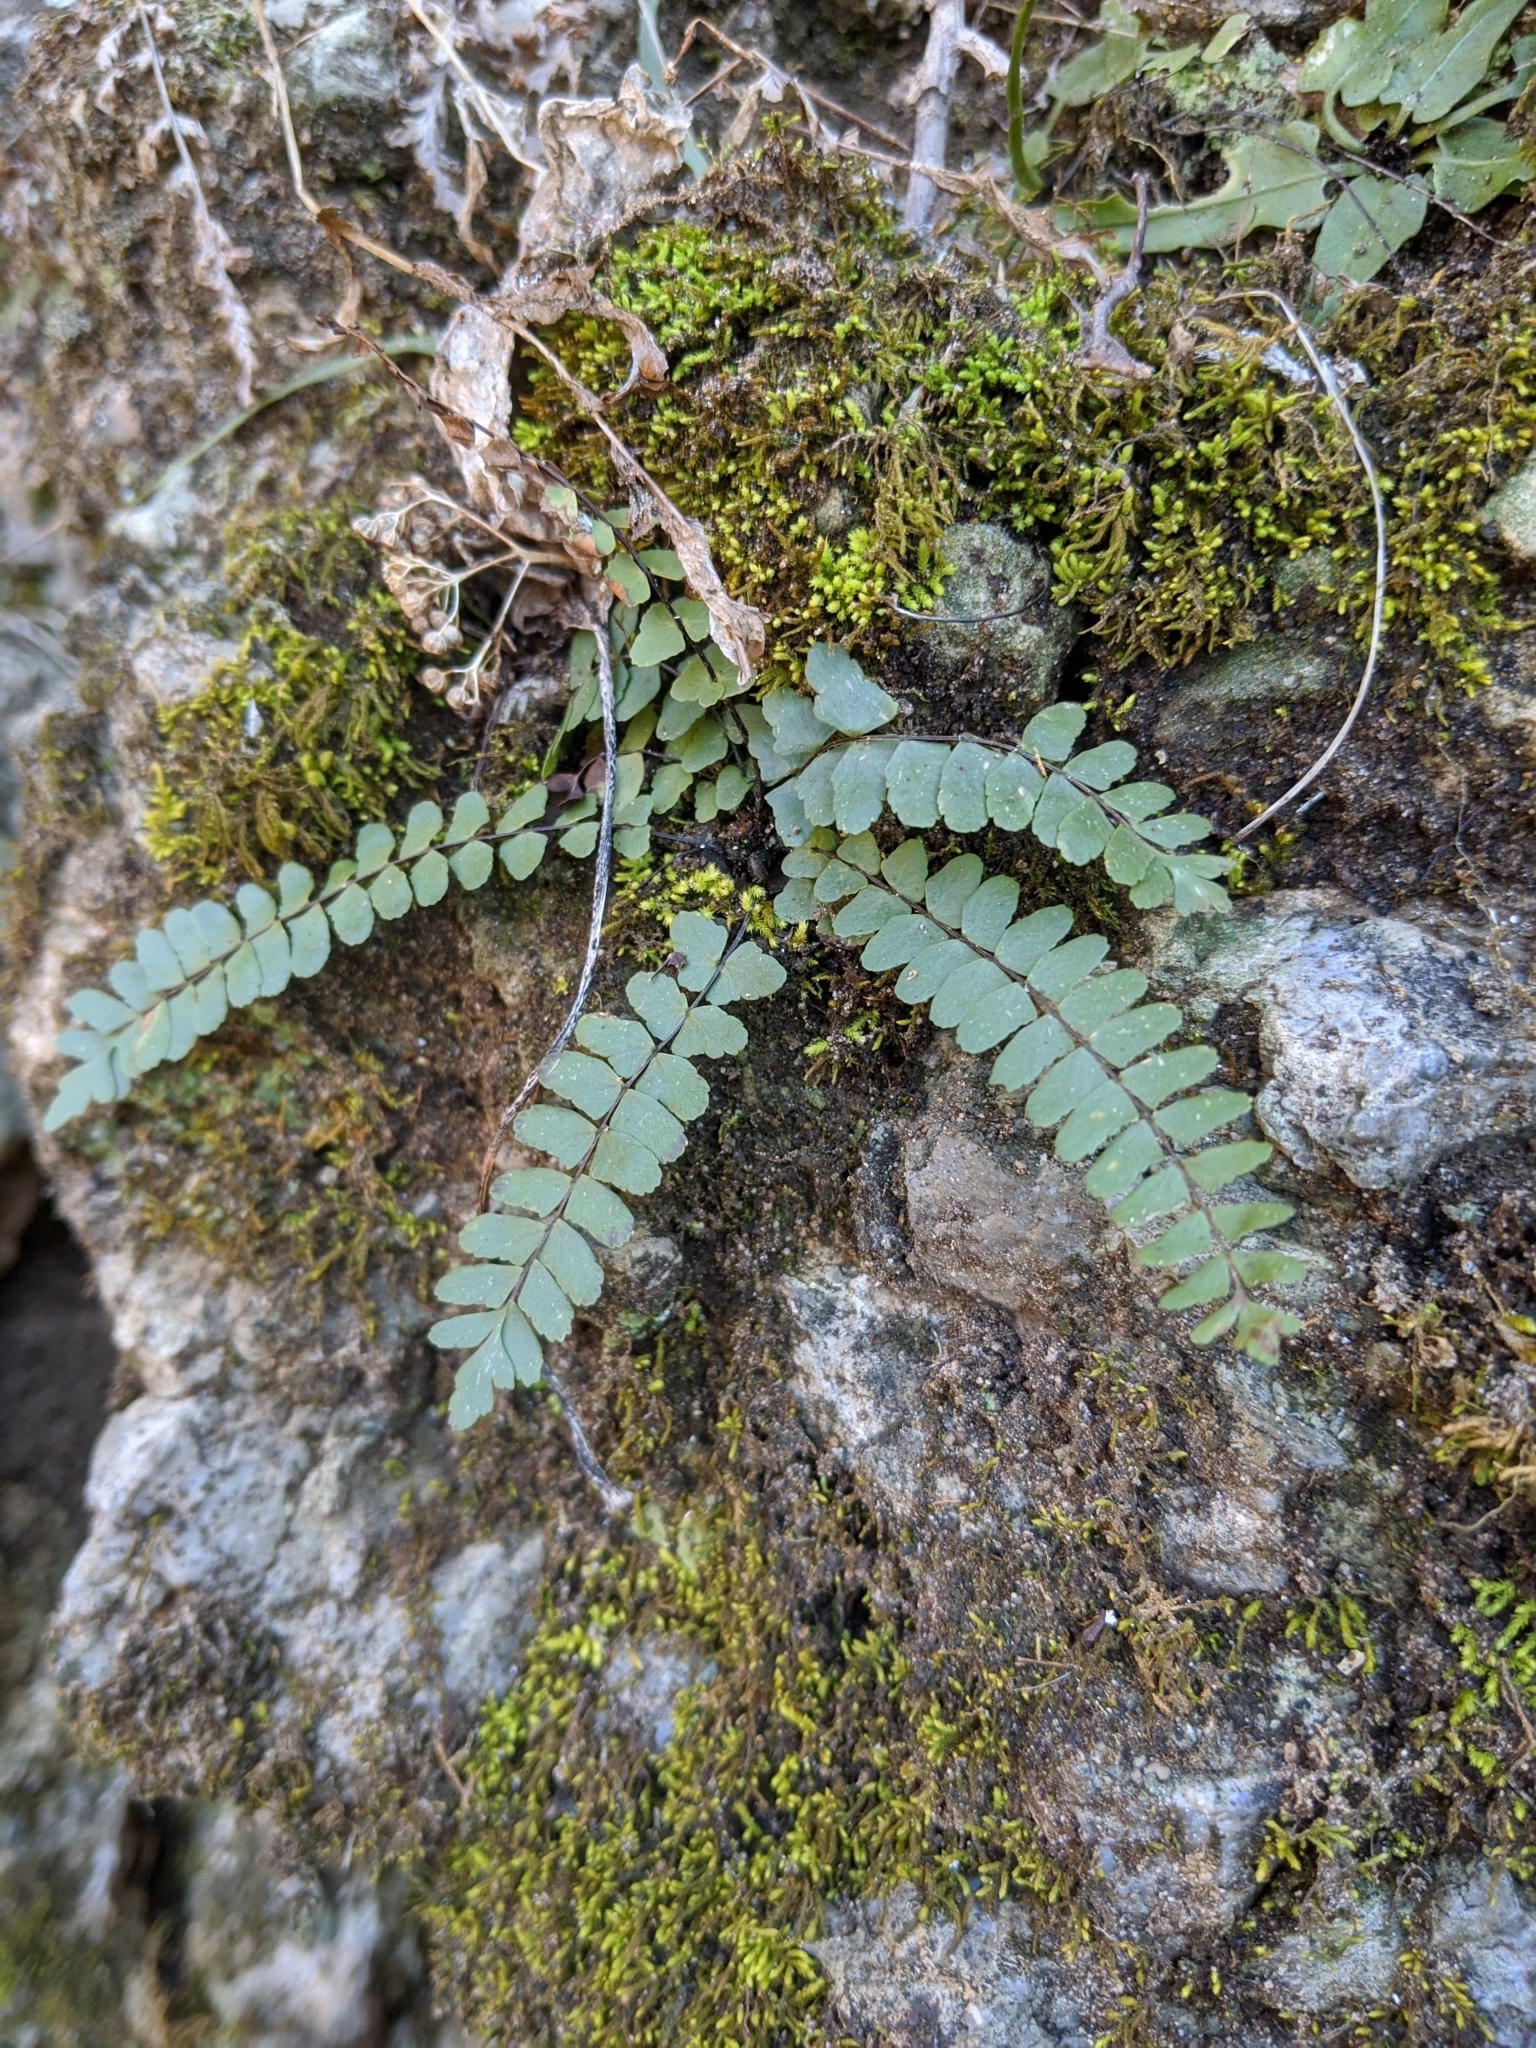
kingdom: Plantae
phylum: Tracheophyta
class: Polypodiopsida
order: Polypodiales
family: Aspleniaceae
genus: Asplenium
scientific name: Asplenium resiliens
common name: Blackstem spleenwort
